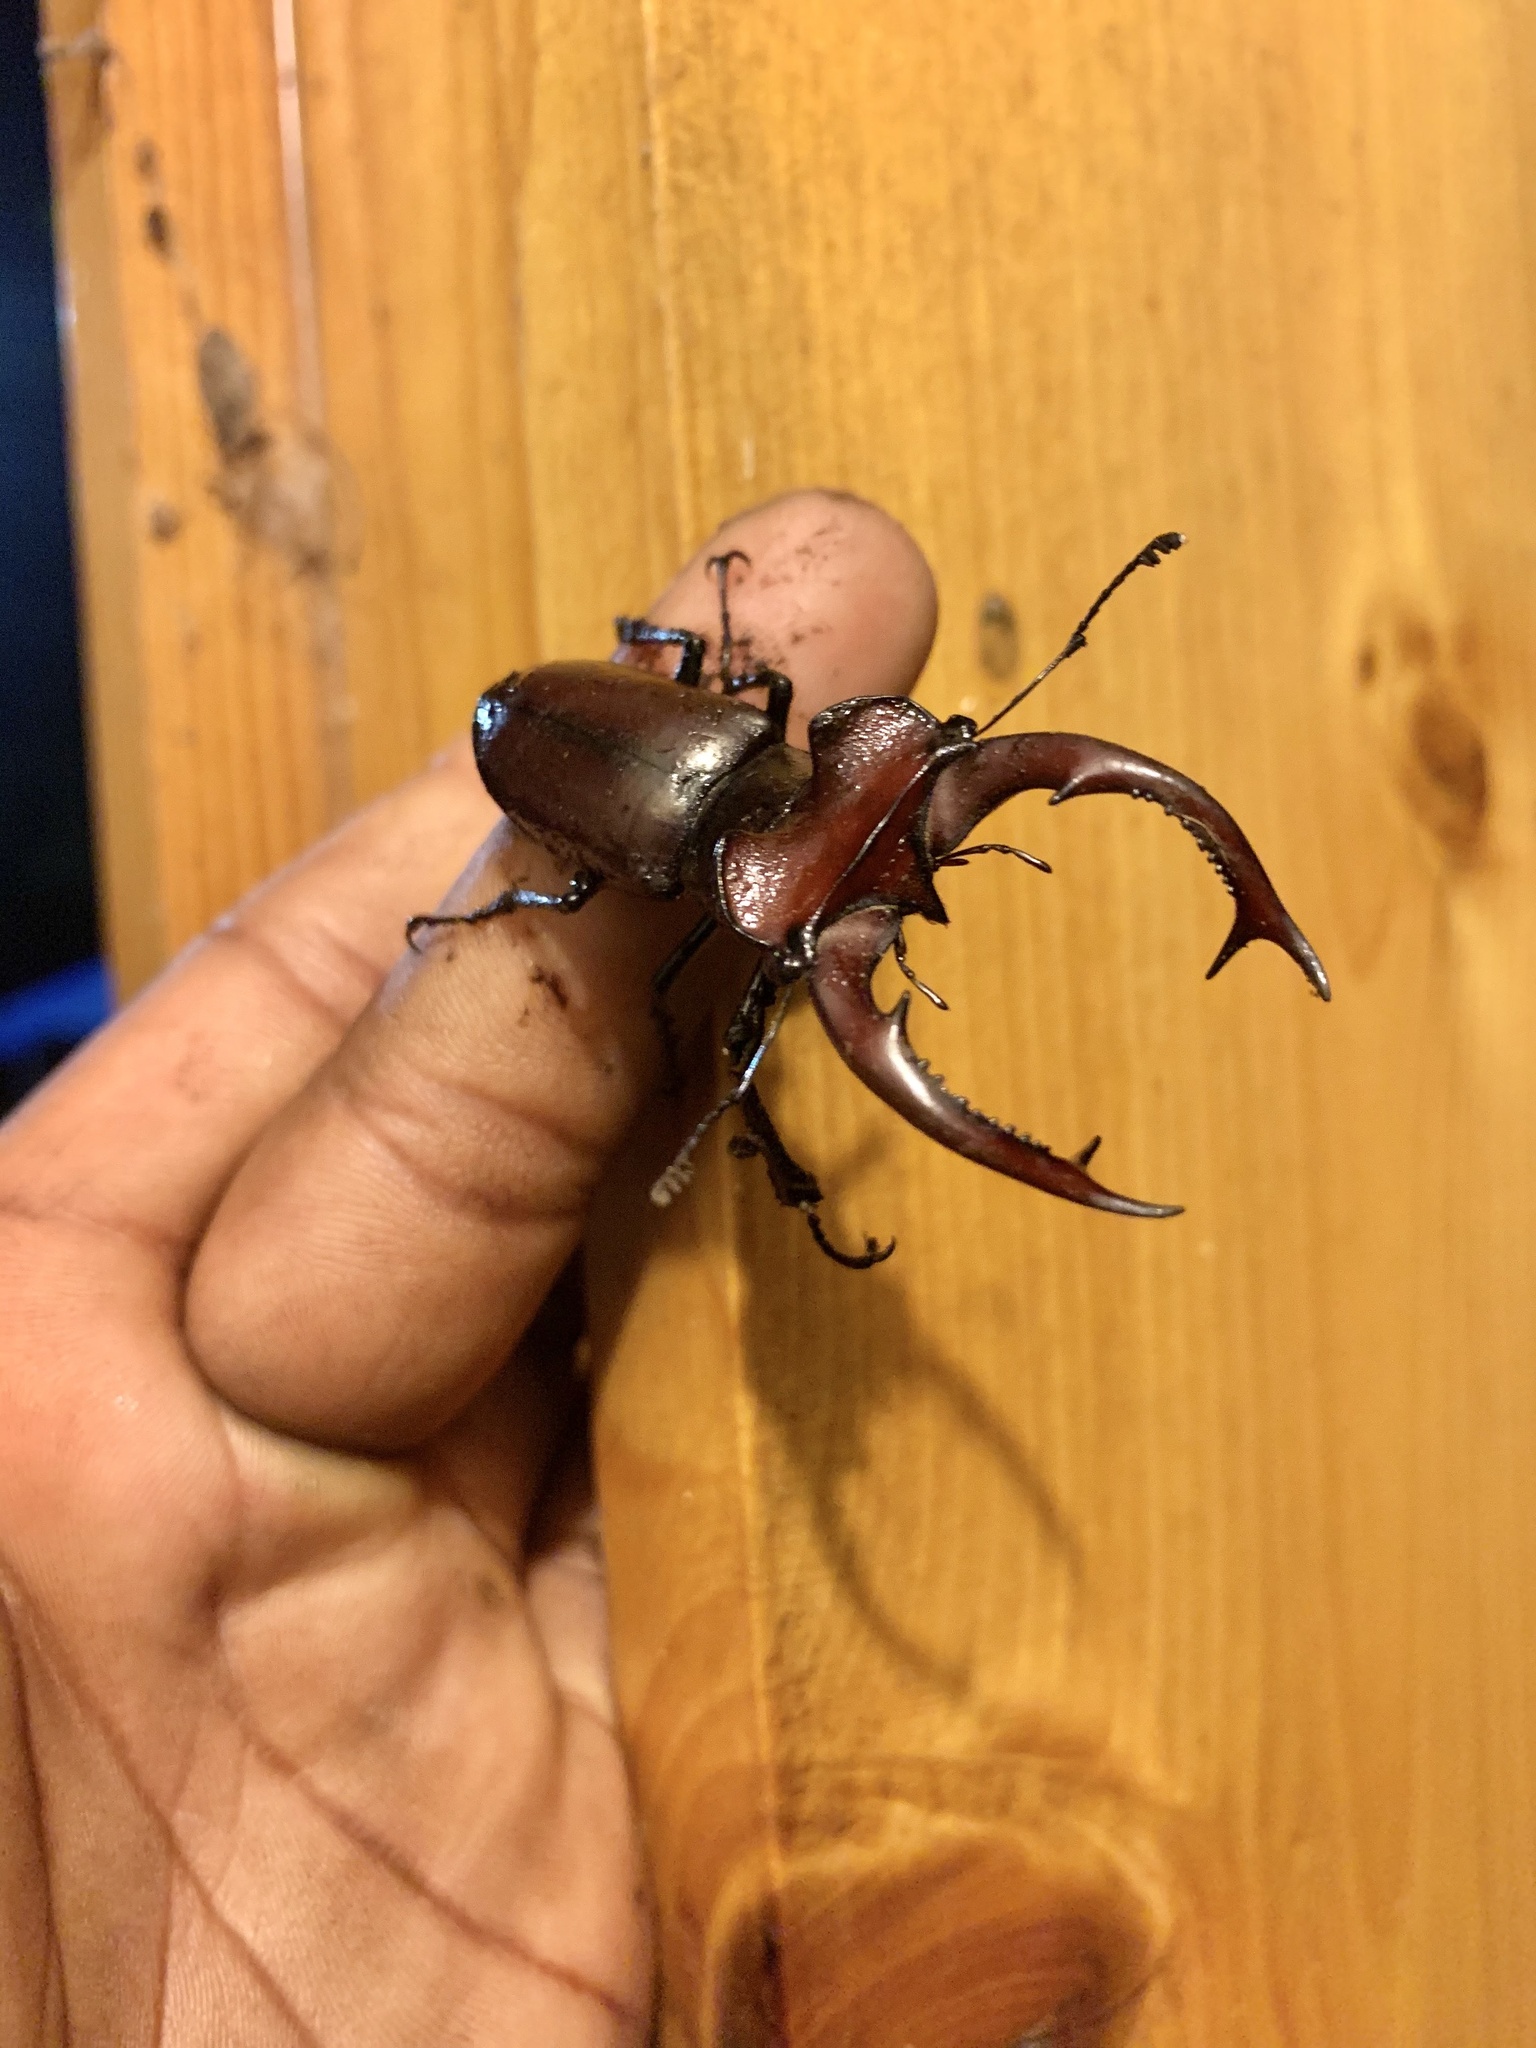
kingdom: Animalia
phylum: Arthropoda
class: Insecta
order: Coleoptera
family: Lucanidae
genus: Lucanus
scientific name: Lucanus elaphus
